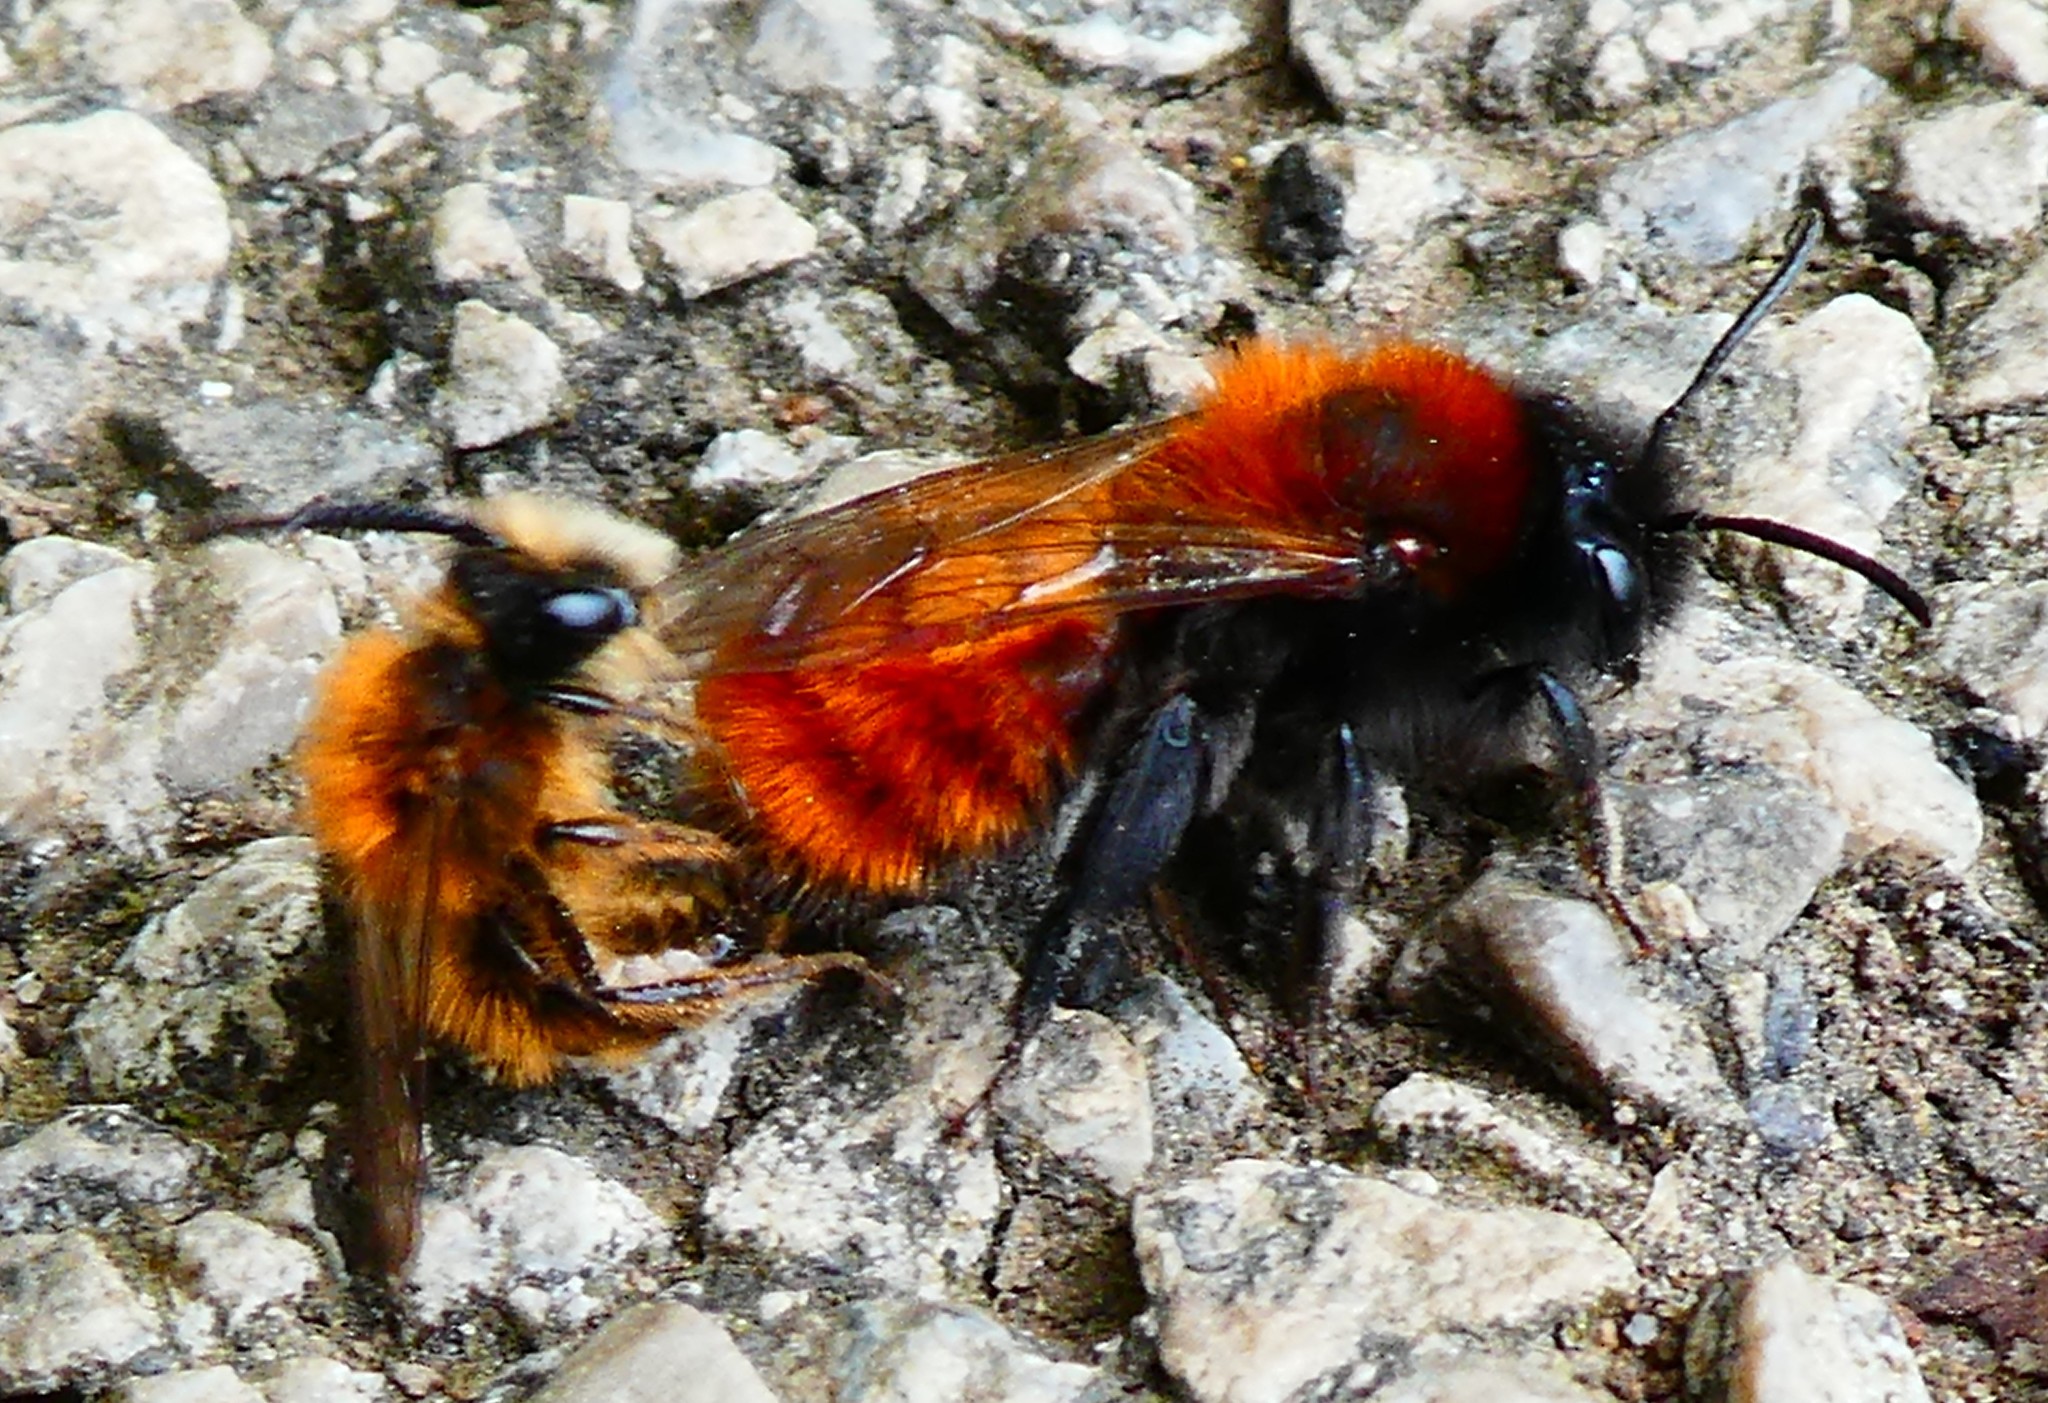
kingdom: Animalia
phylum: Arthropoda
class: Insecta
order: Hymenoptera
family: Andrenidae
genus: Andrena
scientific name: Andrena fulva
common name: Tawny mining bee
